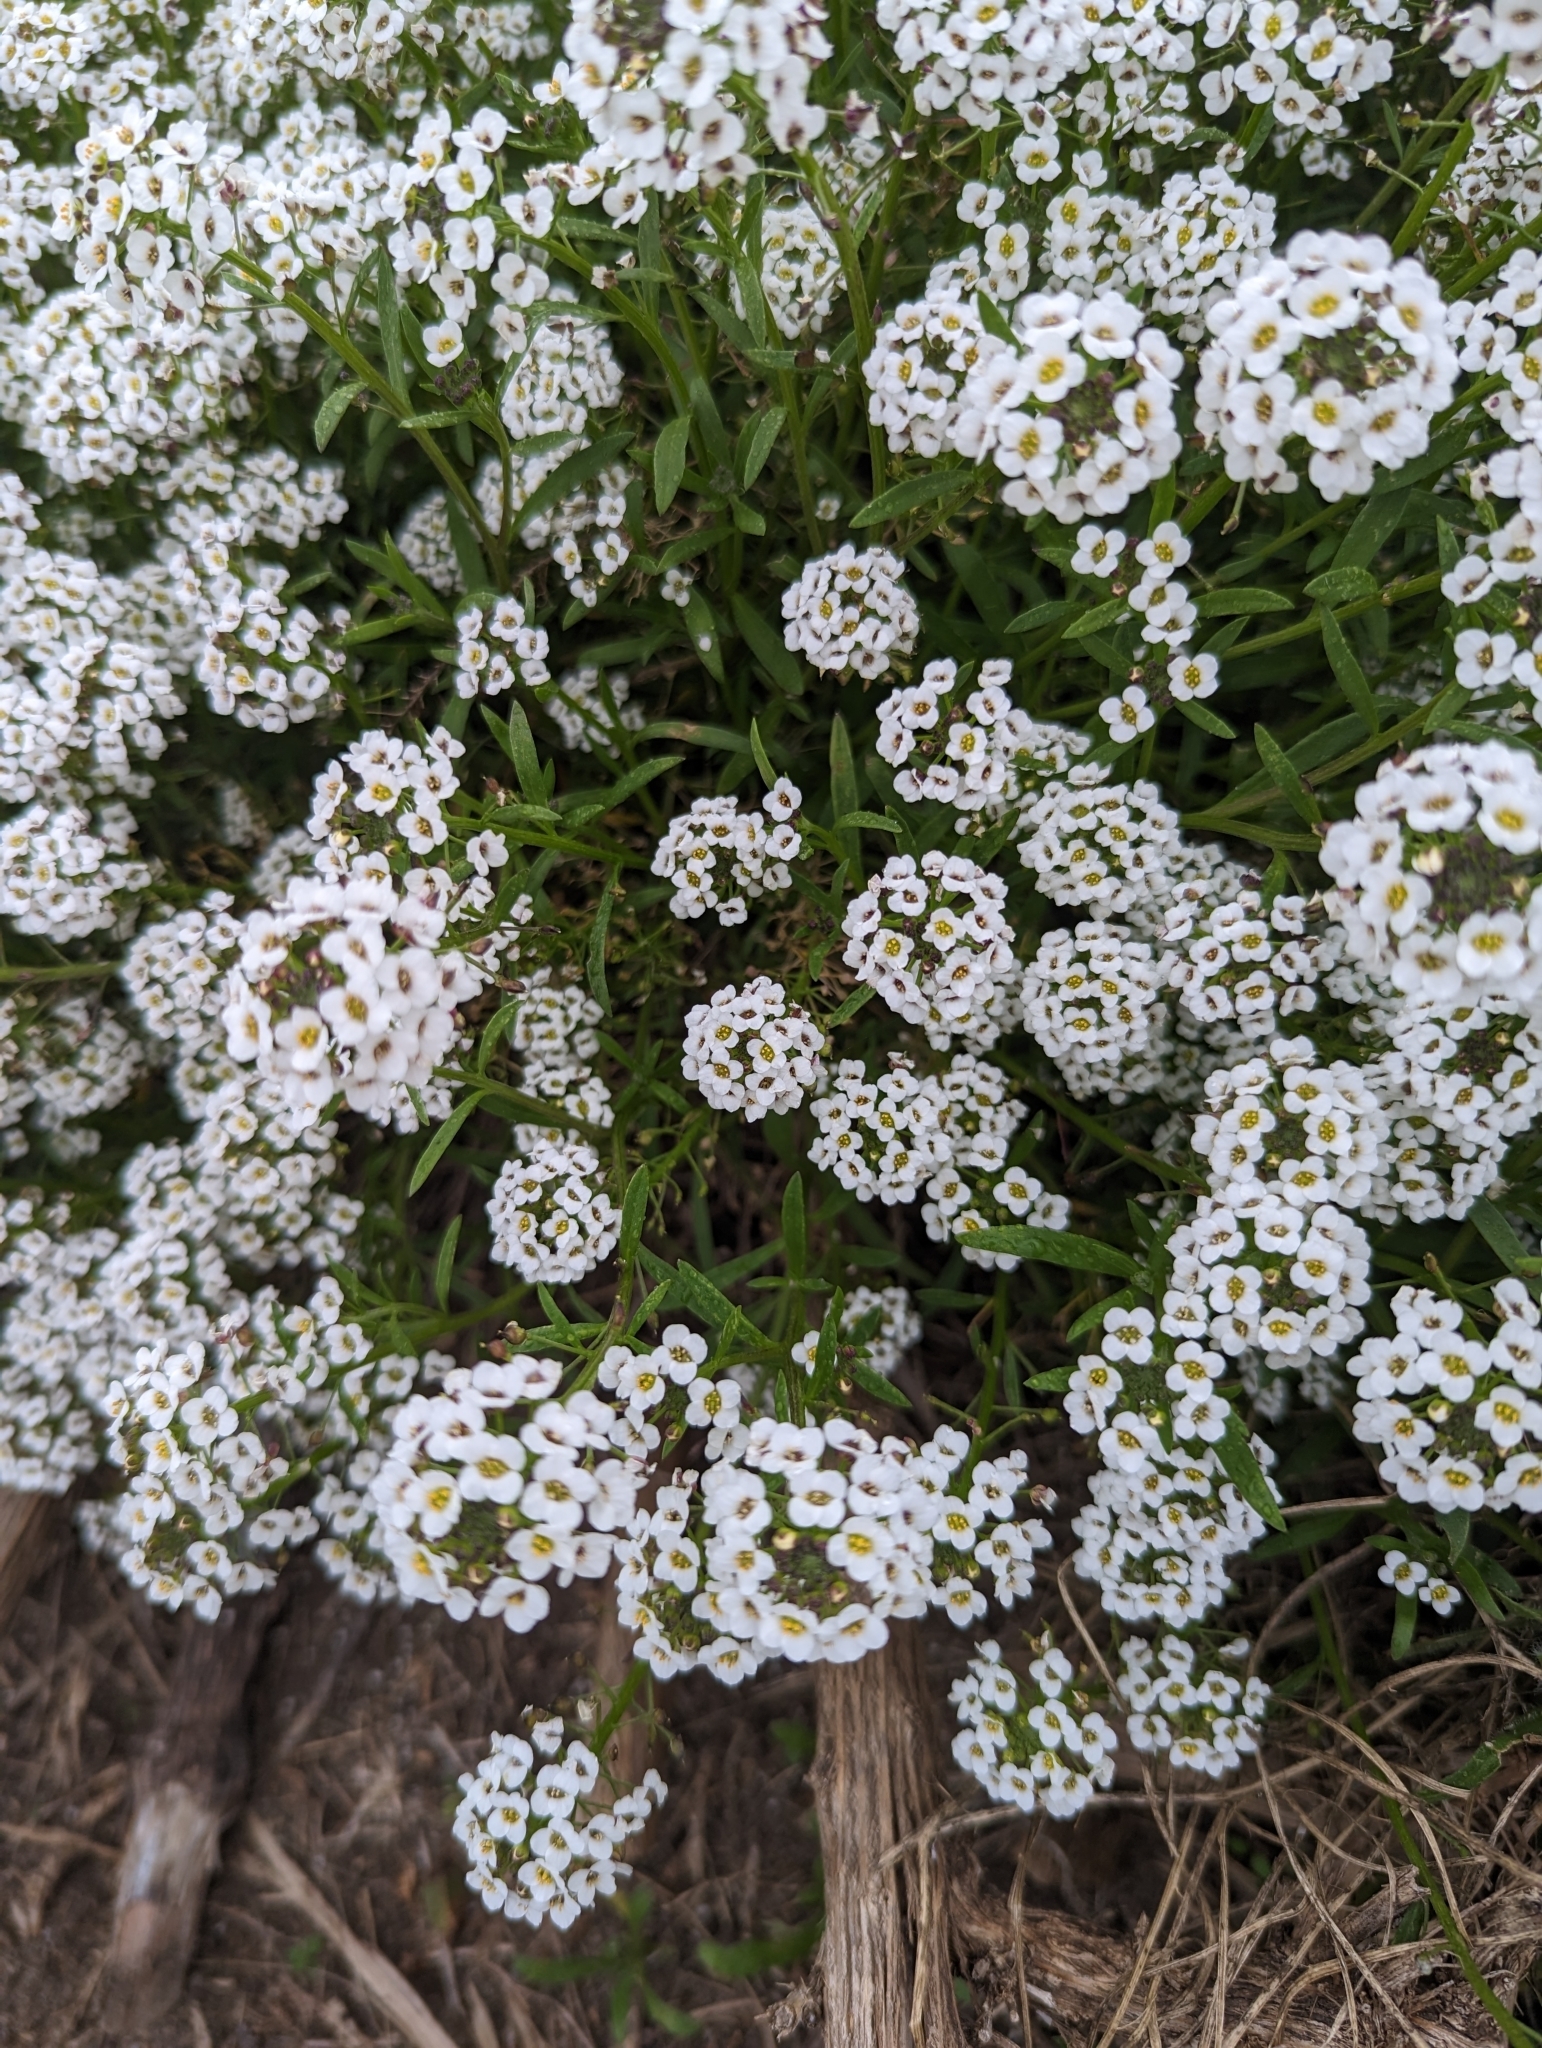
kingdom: Plantae
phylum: Tracheophyta
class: Magnoliopsida
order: Brassicales
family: Brassicaceae
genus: Lobularia
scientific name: Lobularia maritima
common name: Sweet alison
